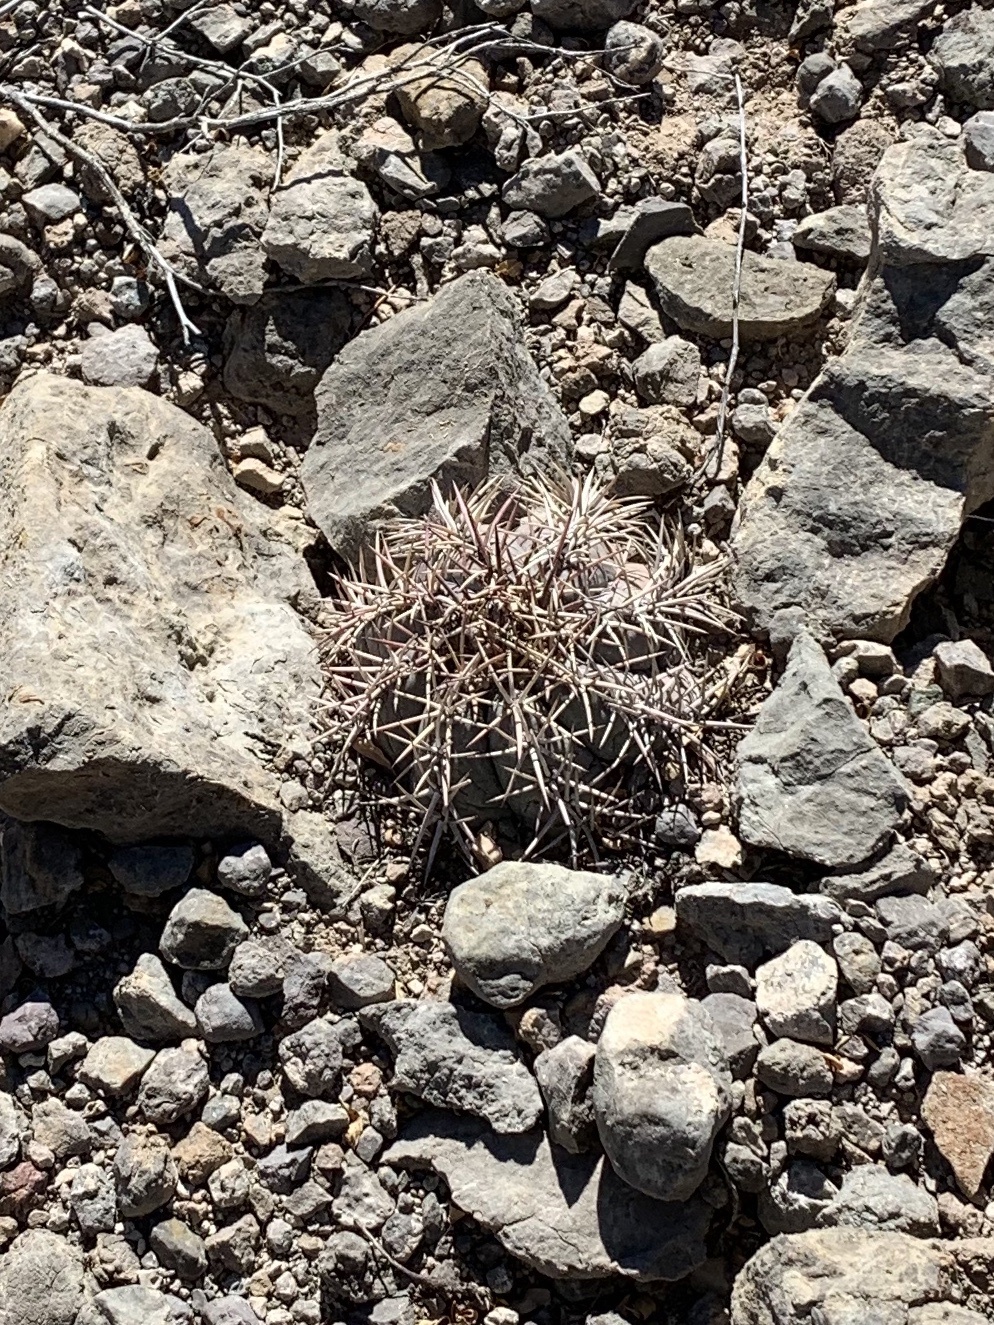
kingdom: Plantae
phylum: Tracheophyta
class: Magnoliopsida
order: Caryophyllales
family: Cactaceae
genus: Echinocactus
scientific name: Echinocactus horizonthalonius
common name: Devilshead
